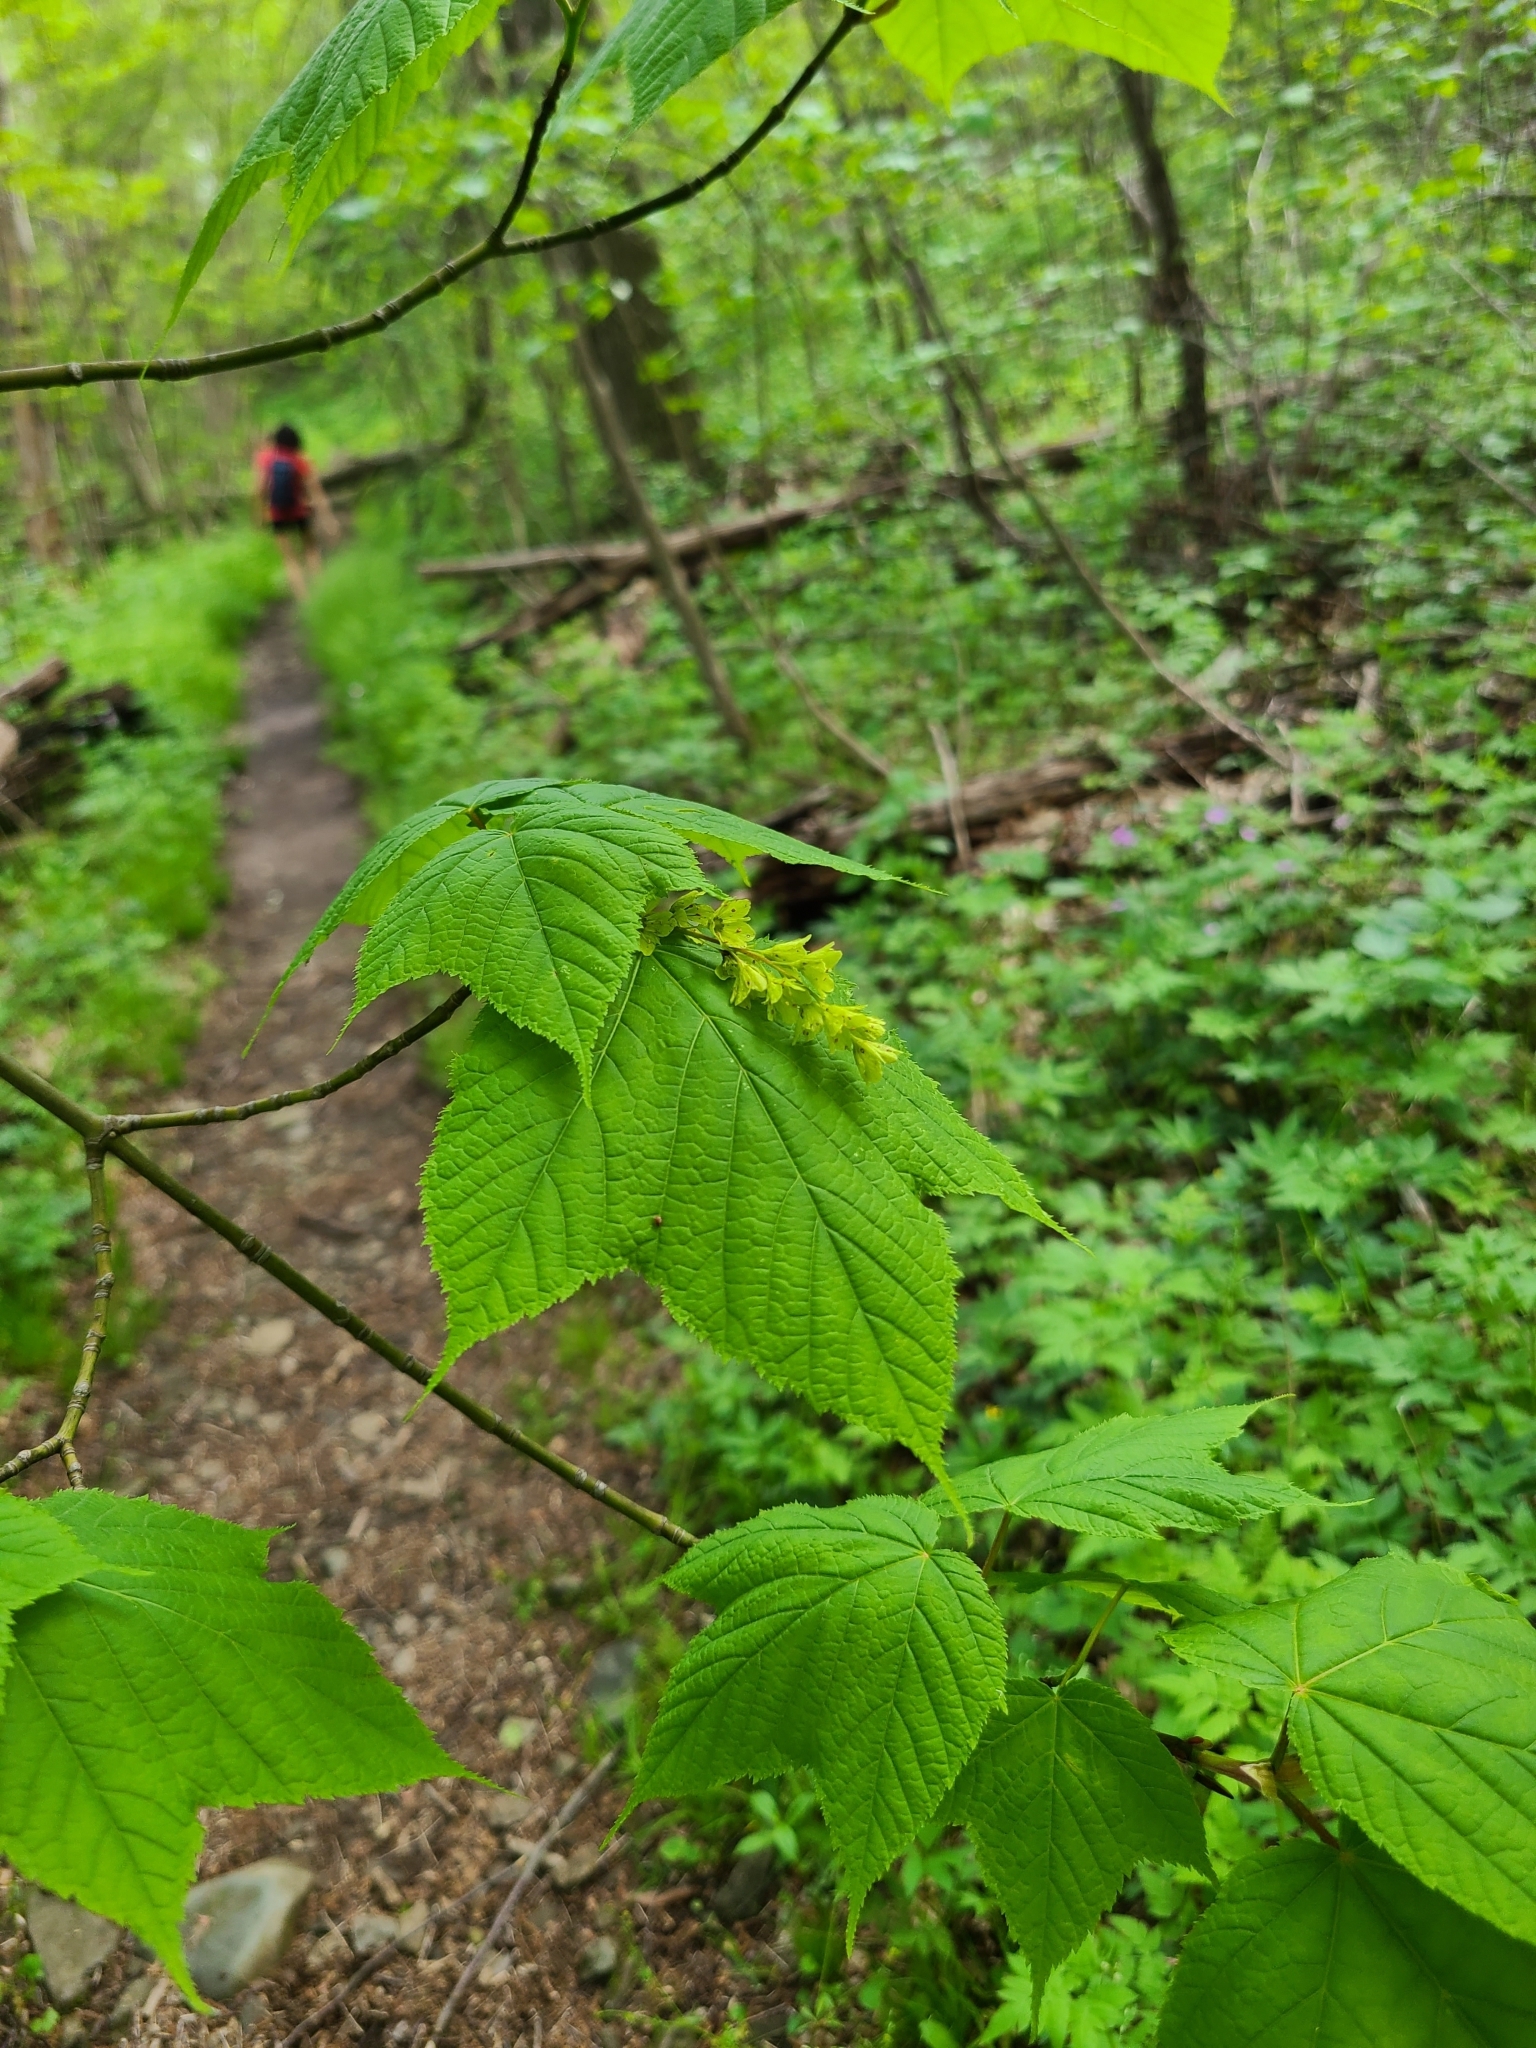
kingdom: Plantae
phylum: Tracheophyta
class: Magnoliopsida
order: Sapindales
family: Sapindaceae
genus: Acer
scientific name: Acer pensylvanicum
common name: Moosewood
